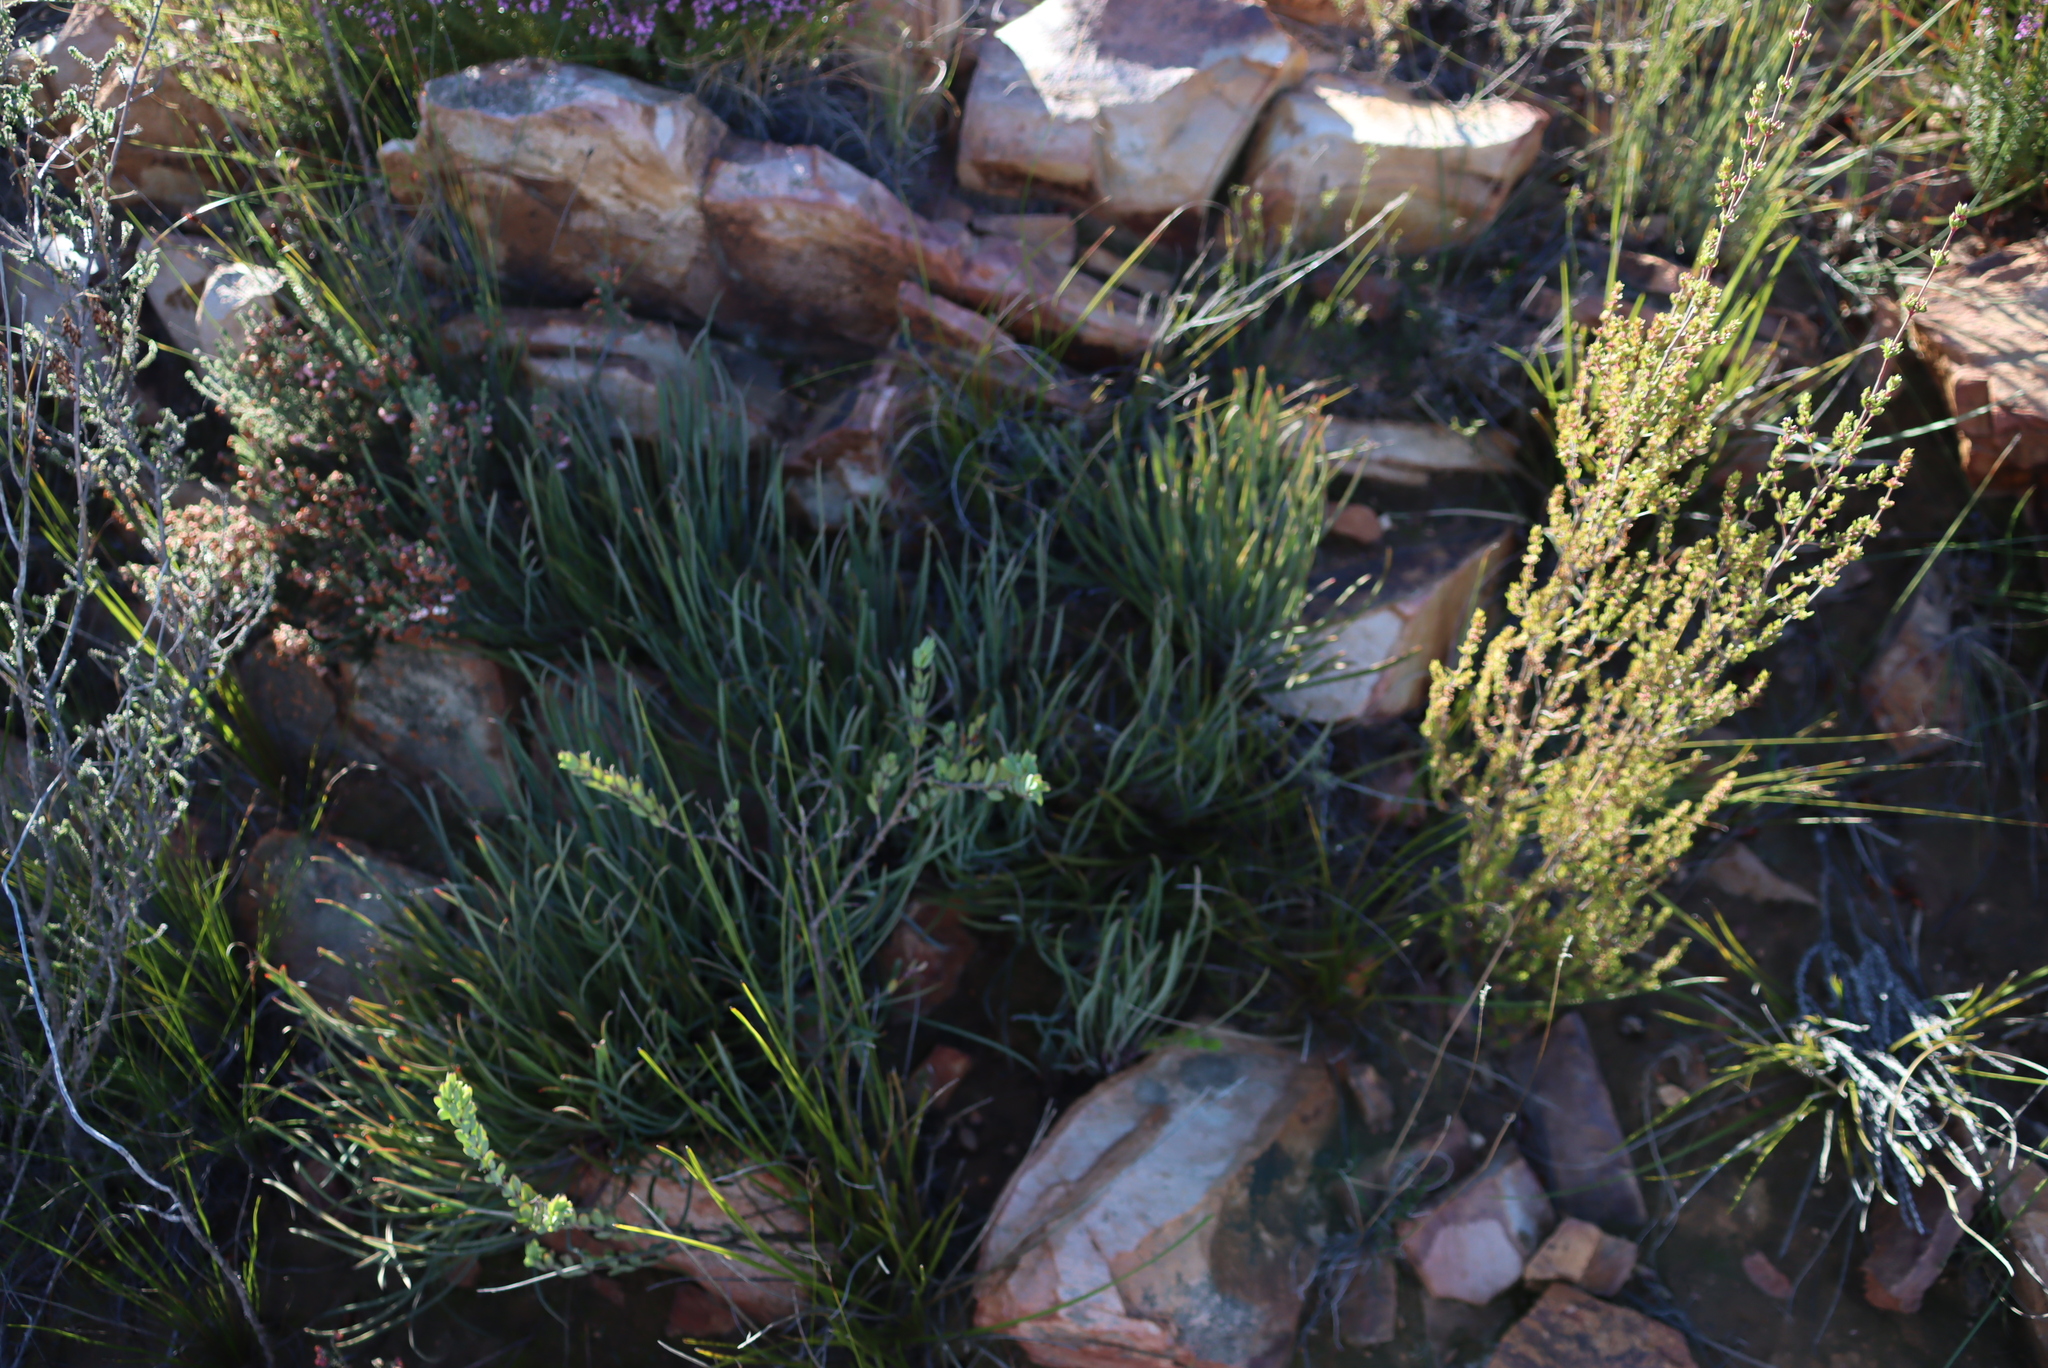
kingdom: Plantae
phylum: Tracheophyta
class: Magnoliopsida
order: Proteales
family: Proteaceae
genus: Protea
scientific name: Protea intonsa
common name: Tufted sugarbush
